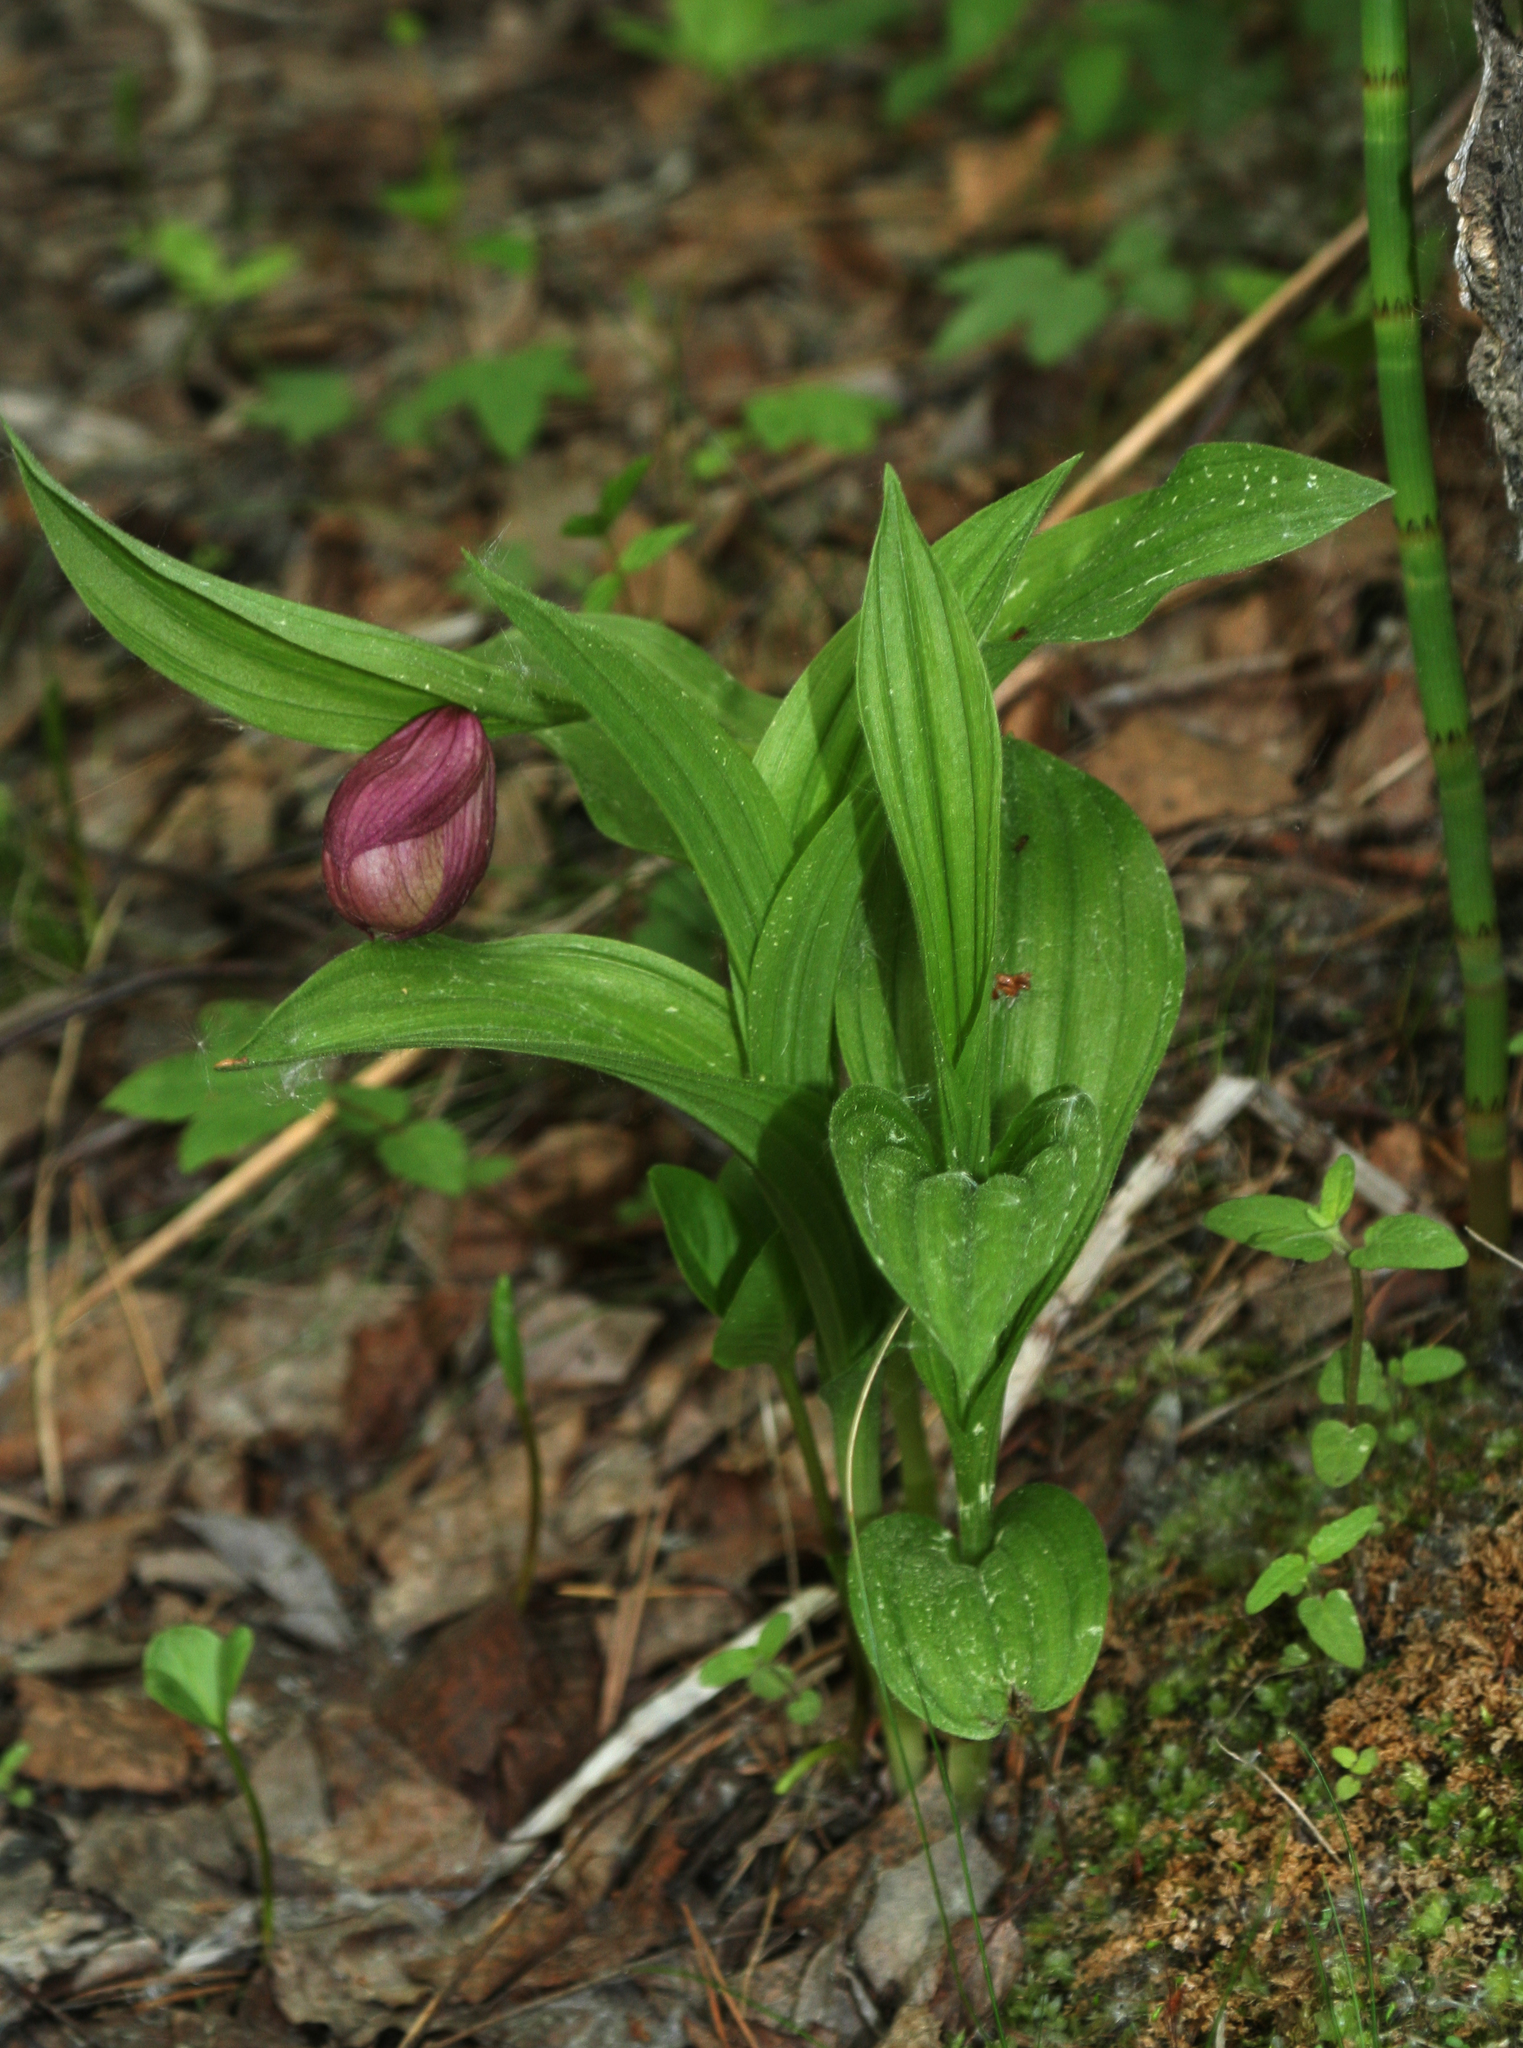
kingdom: Plantae
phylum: Tracheophyta
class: Liliopsida
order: Asparagales
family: Orchidaceae
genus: Cypripedium
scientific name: Cypripedium macranthos
